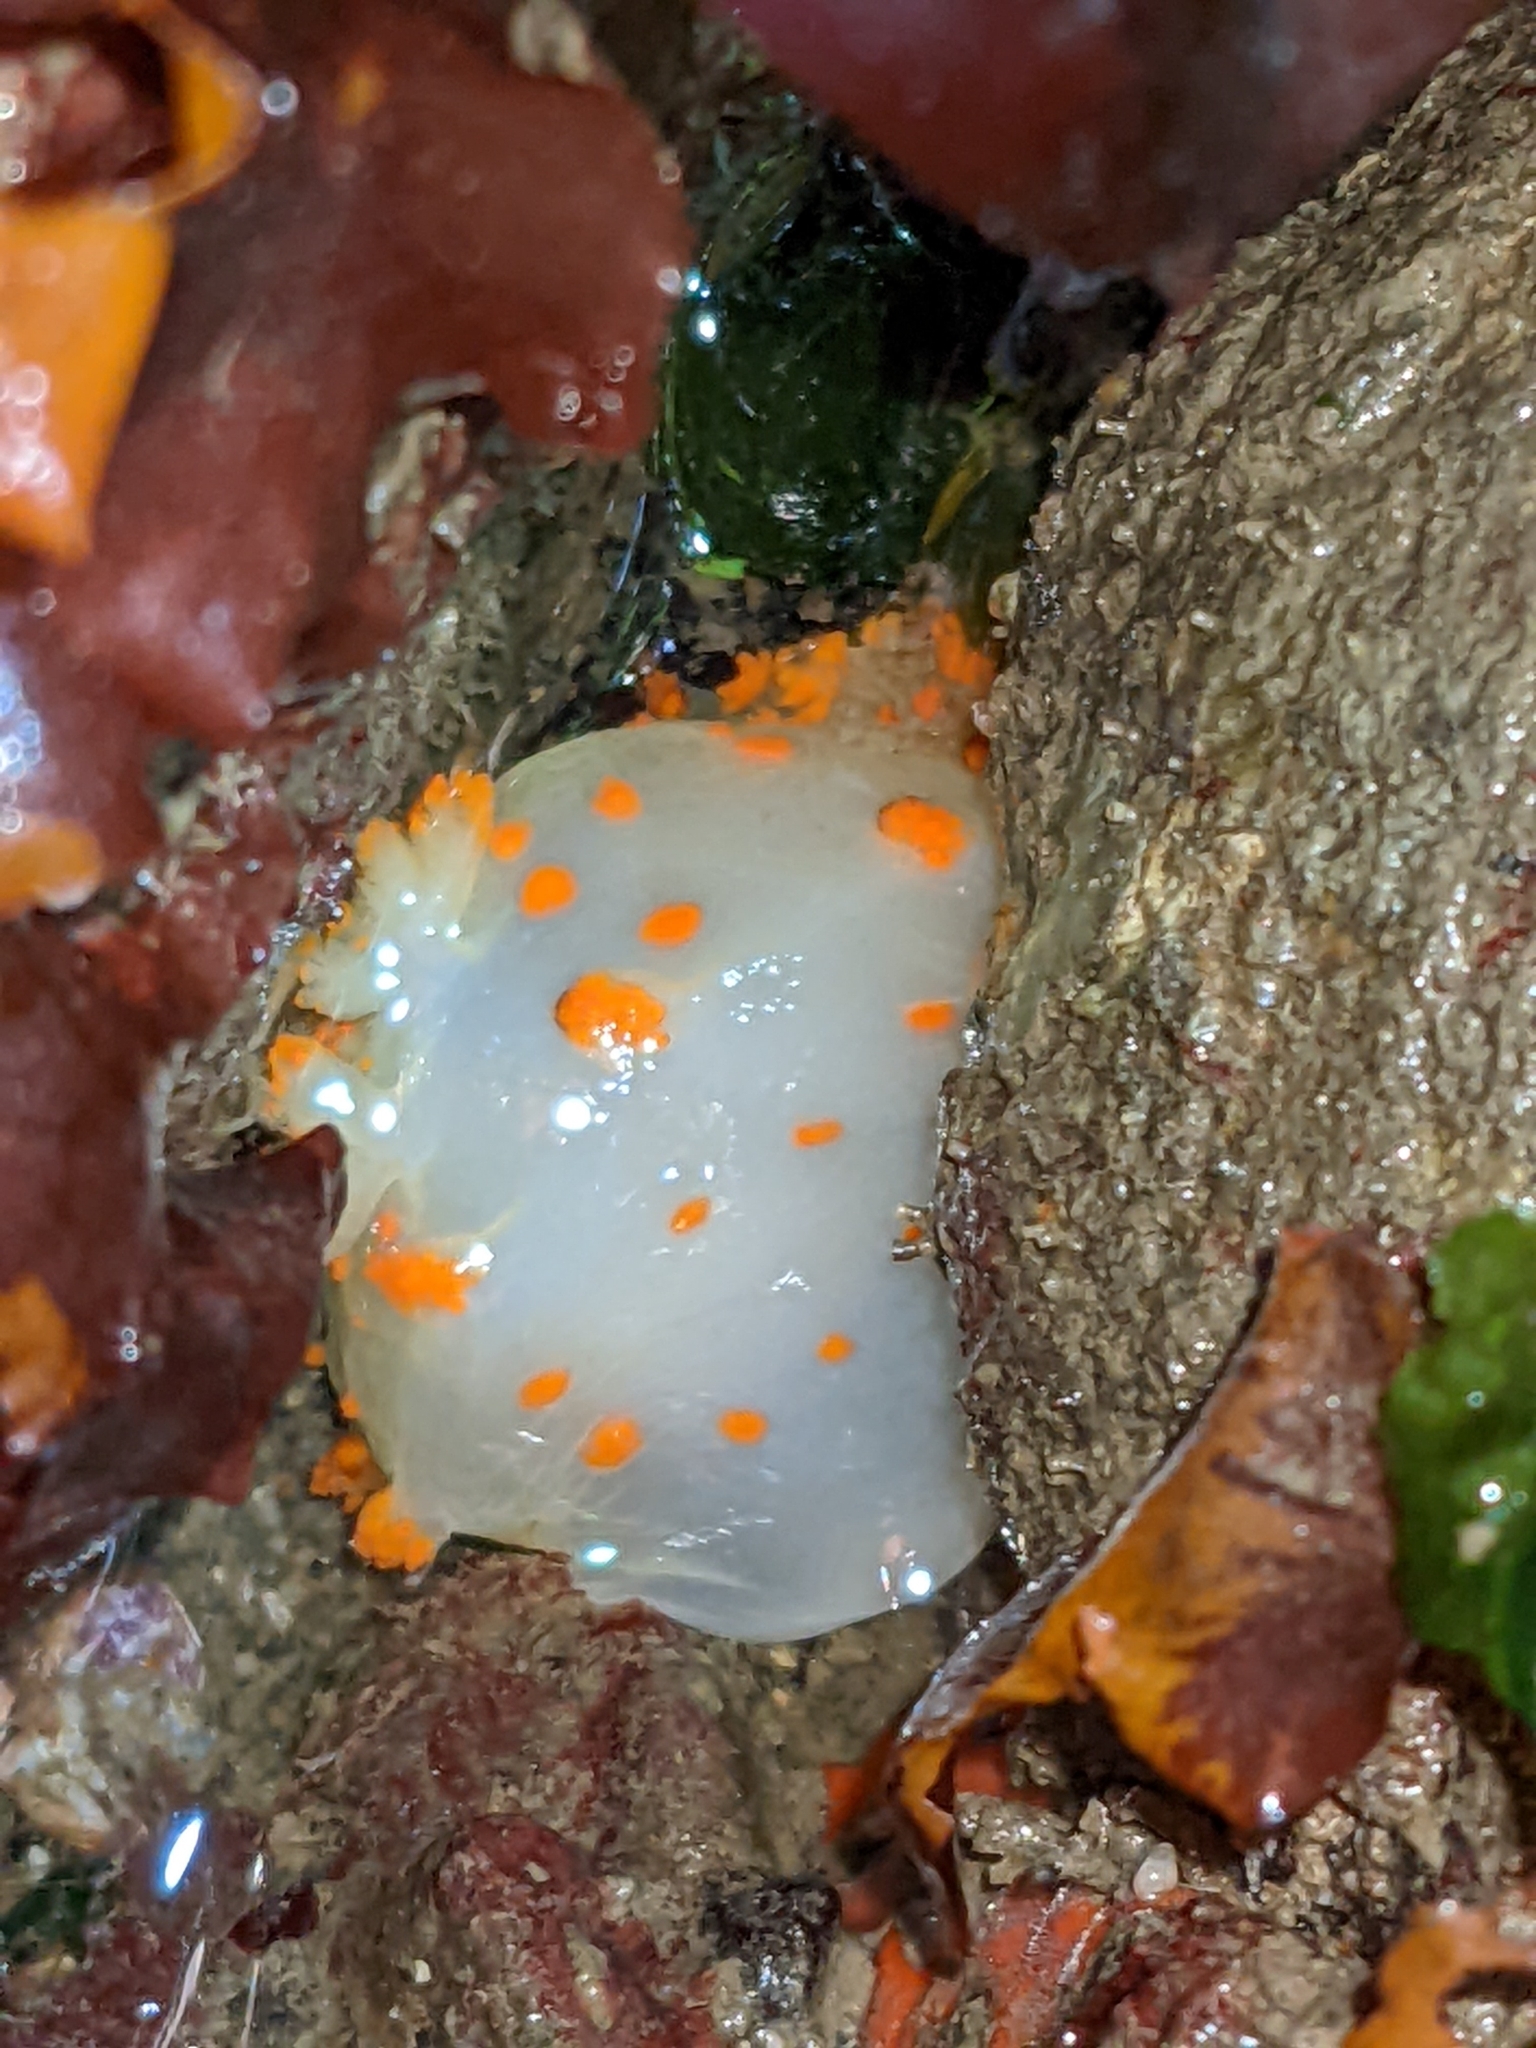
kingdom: Animalia
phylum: Mollusca
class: Gastropoda
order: Nudibranchia
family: Polyceridae
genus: Triopha
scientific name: Triopha catalinae
